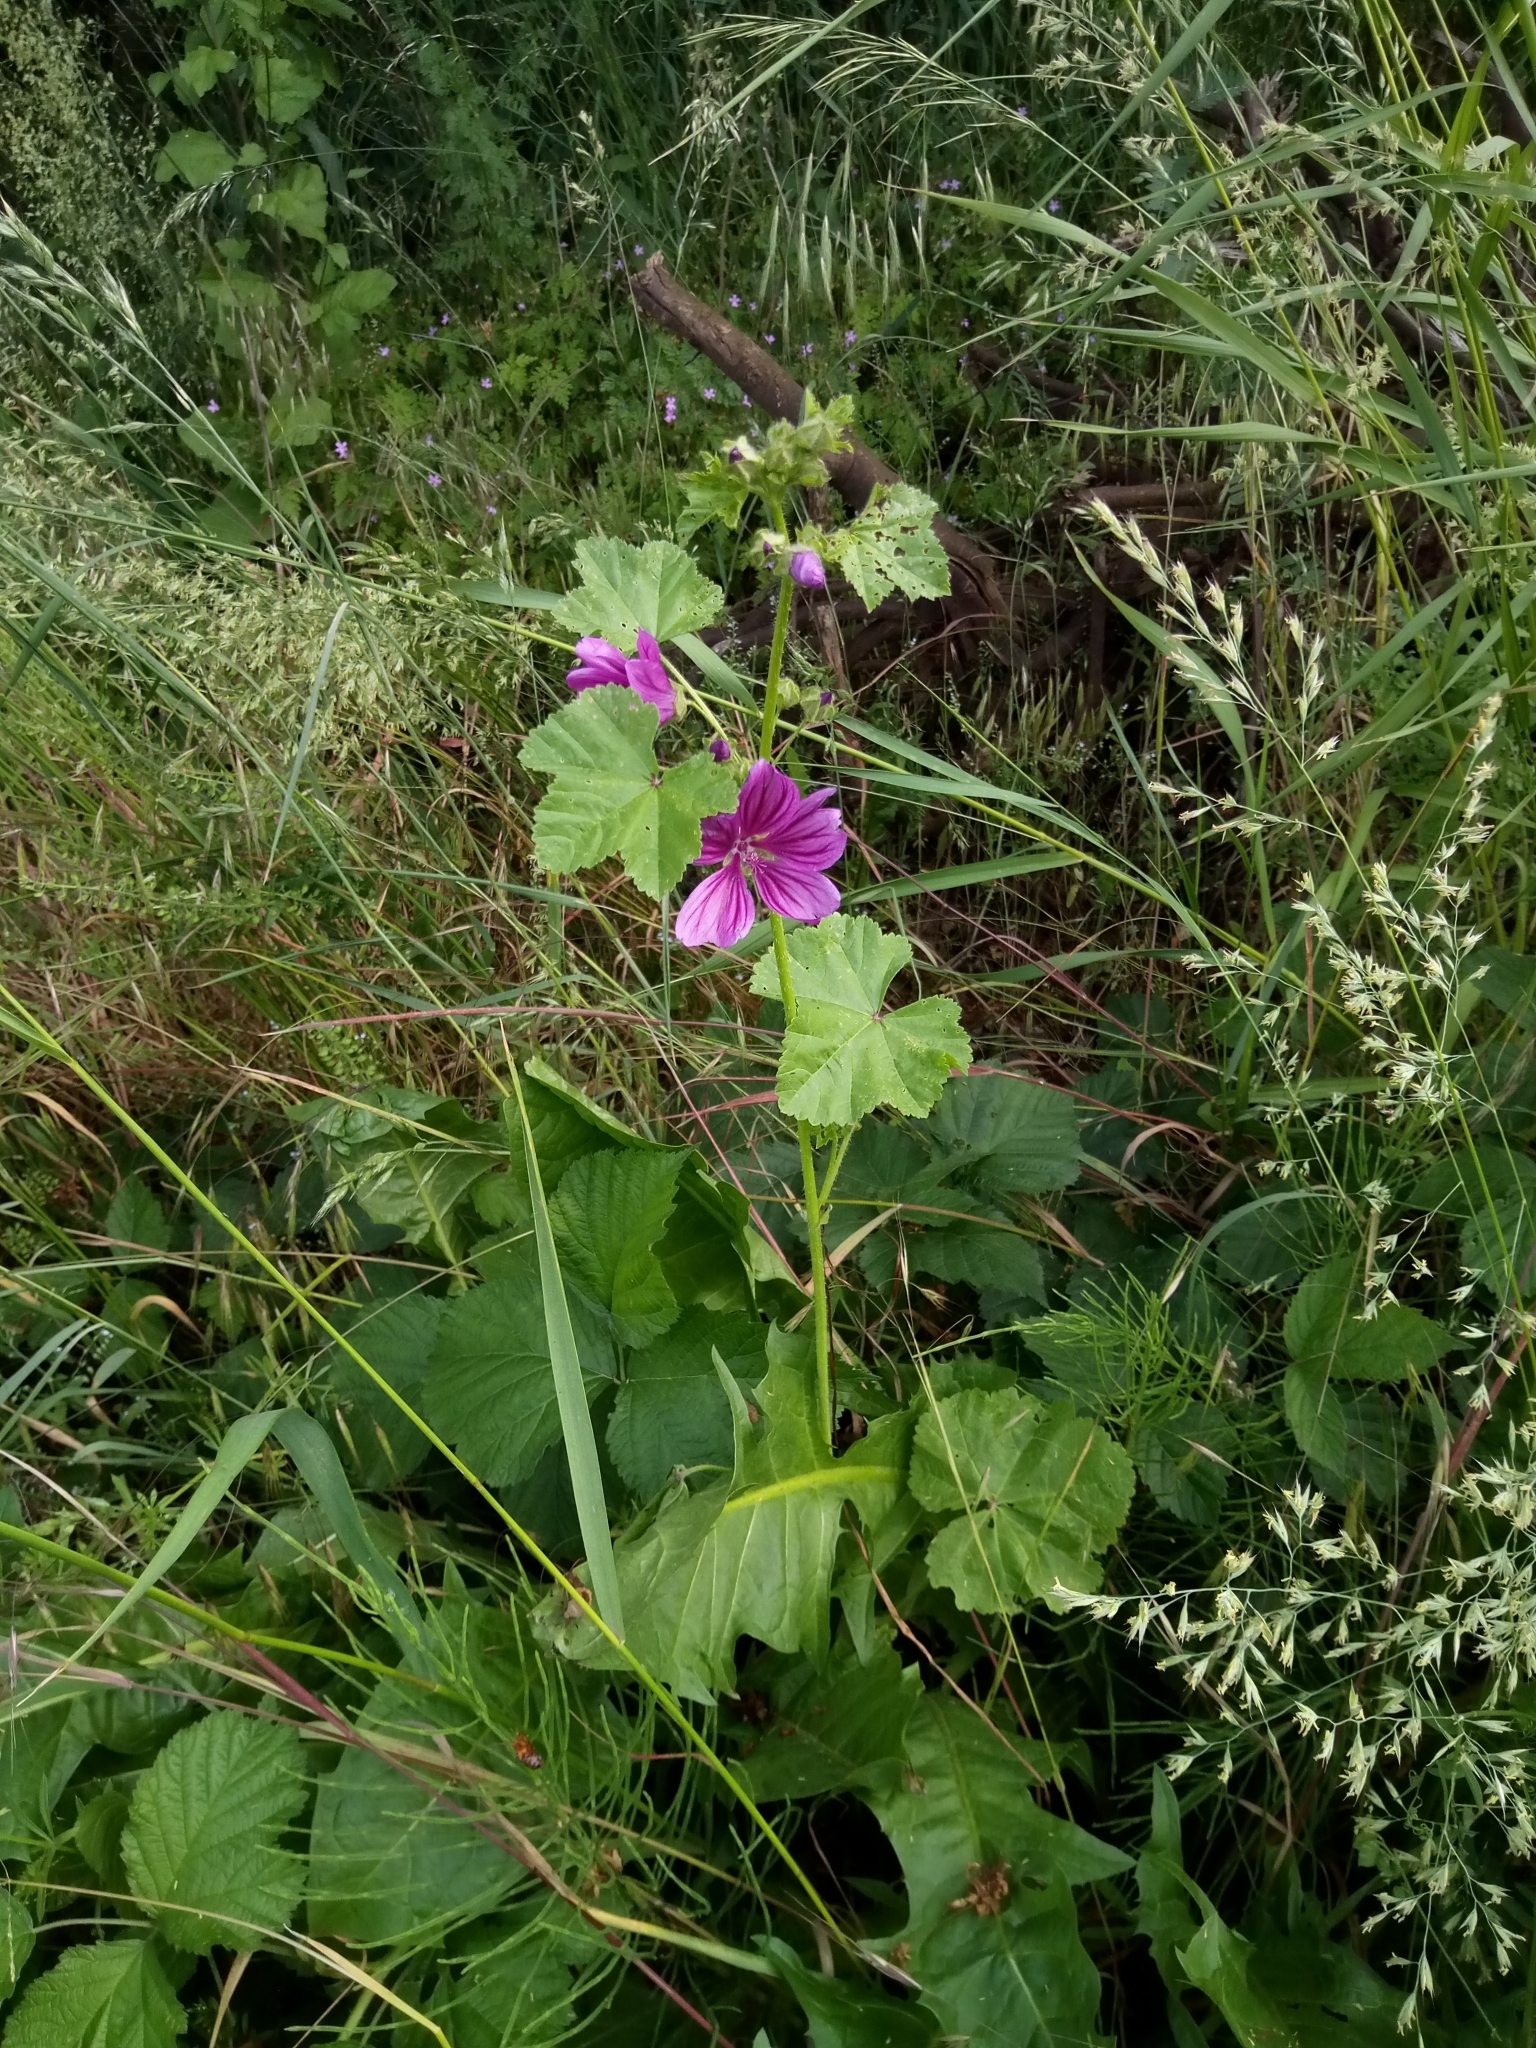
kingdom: Plantae
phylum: Tracheophyta
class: Magnoliopsida
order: Malvales
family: Malvaceae
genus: Malva
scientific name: Malva sylvestris
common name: Common mallow
